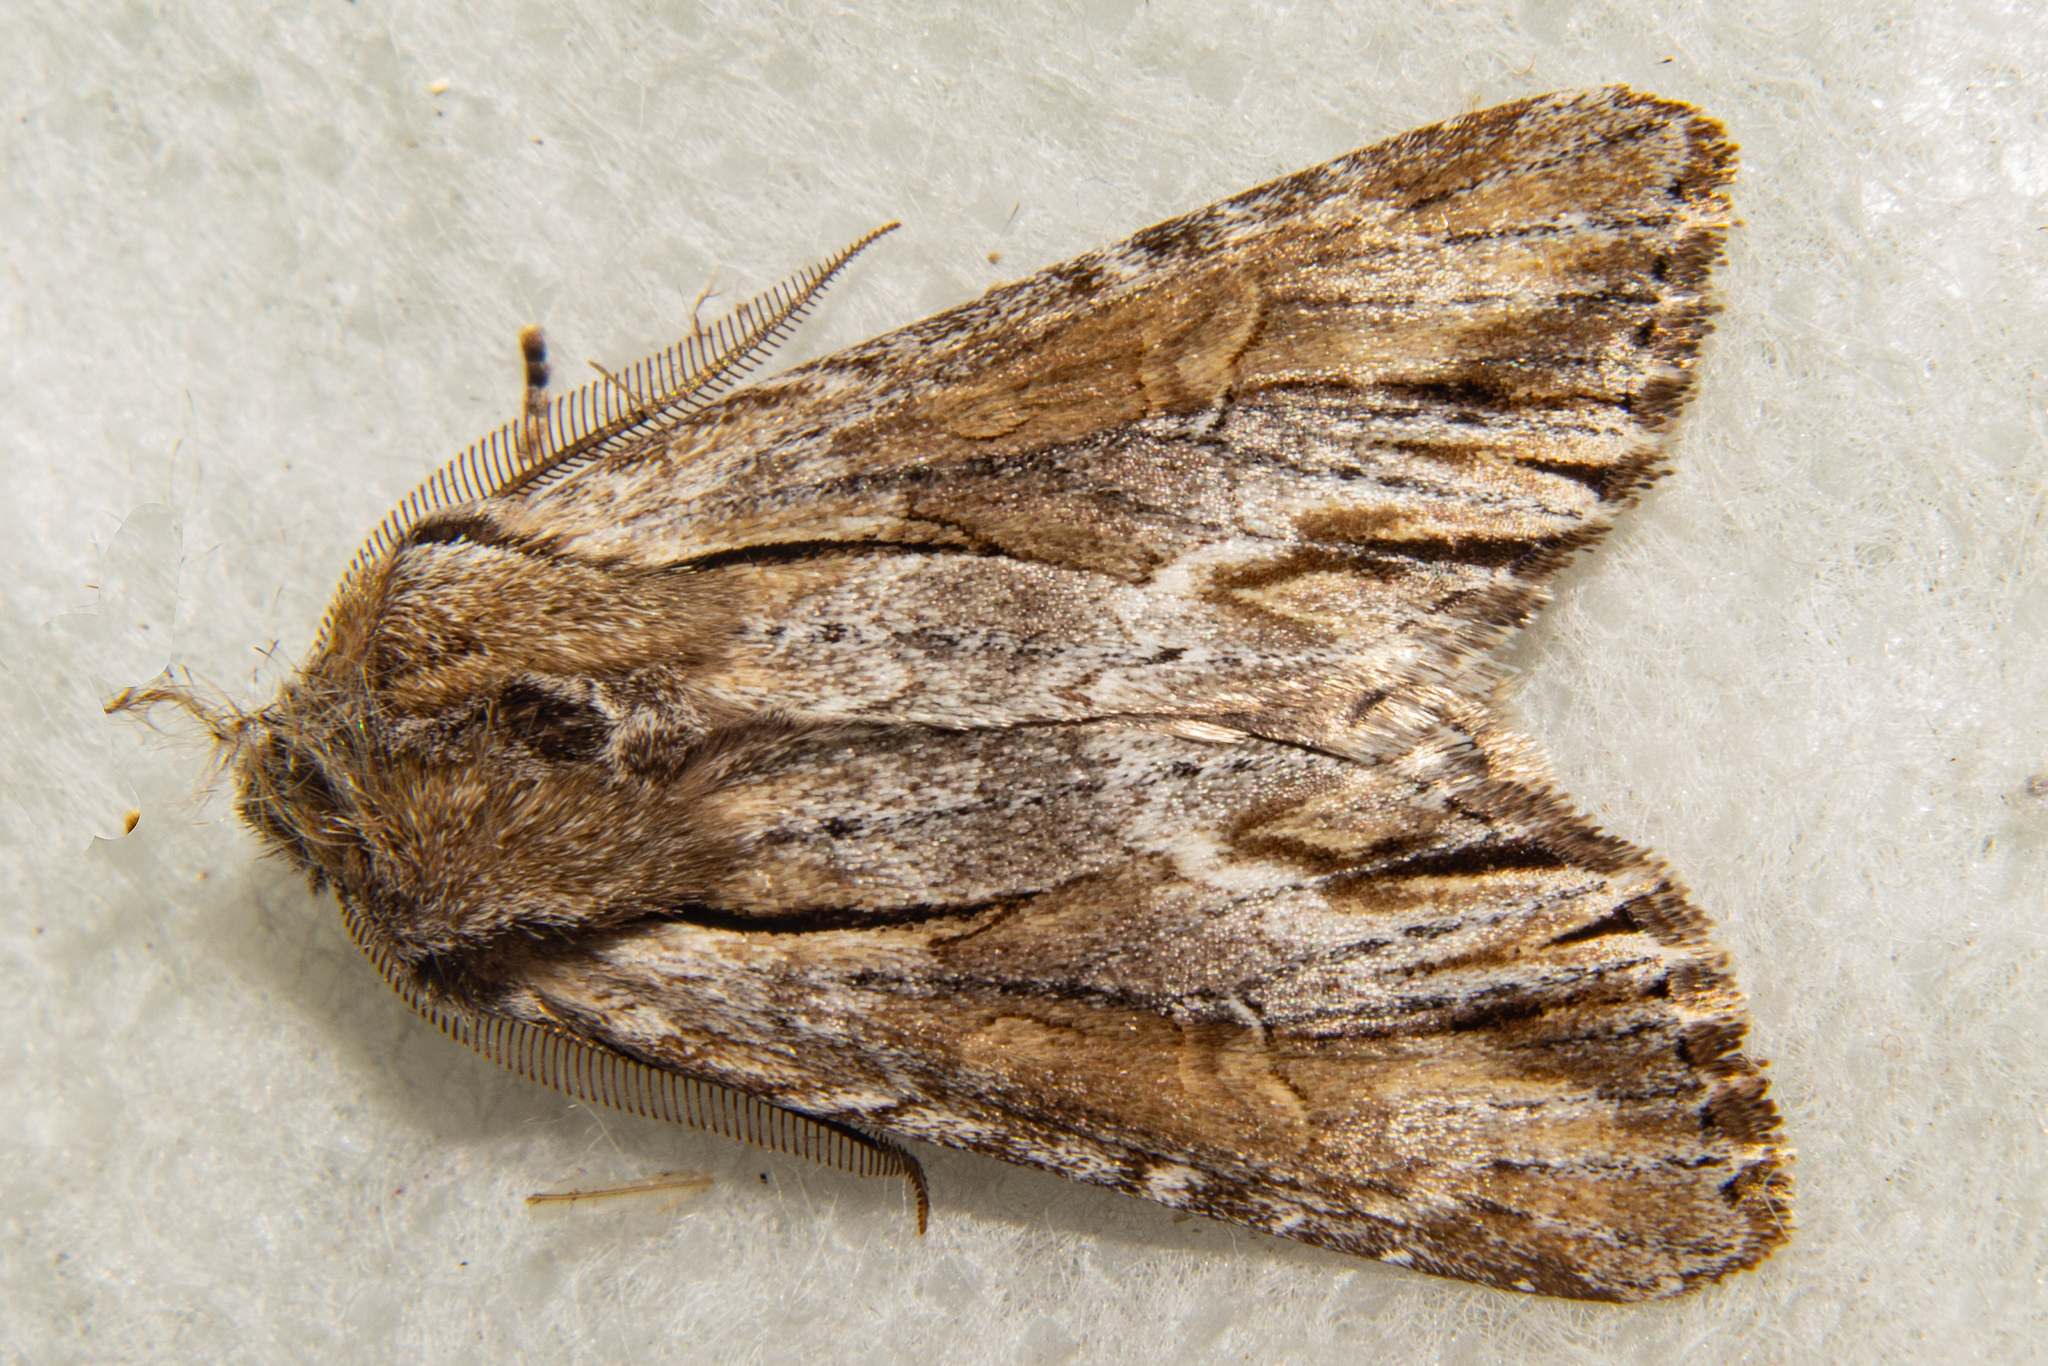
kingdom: Animalia
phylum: Arthropoda
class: Insecta
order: Lepidoptera
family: Noctuidae
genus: Ichneutica
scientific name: Ichneutica
